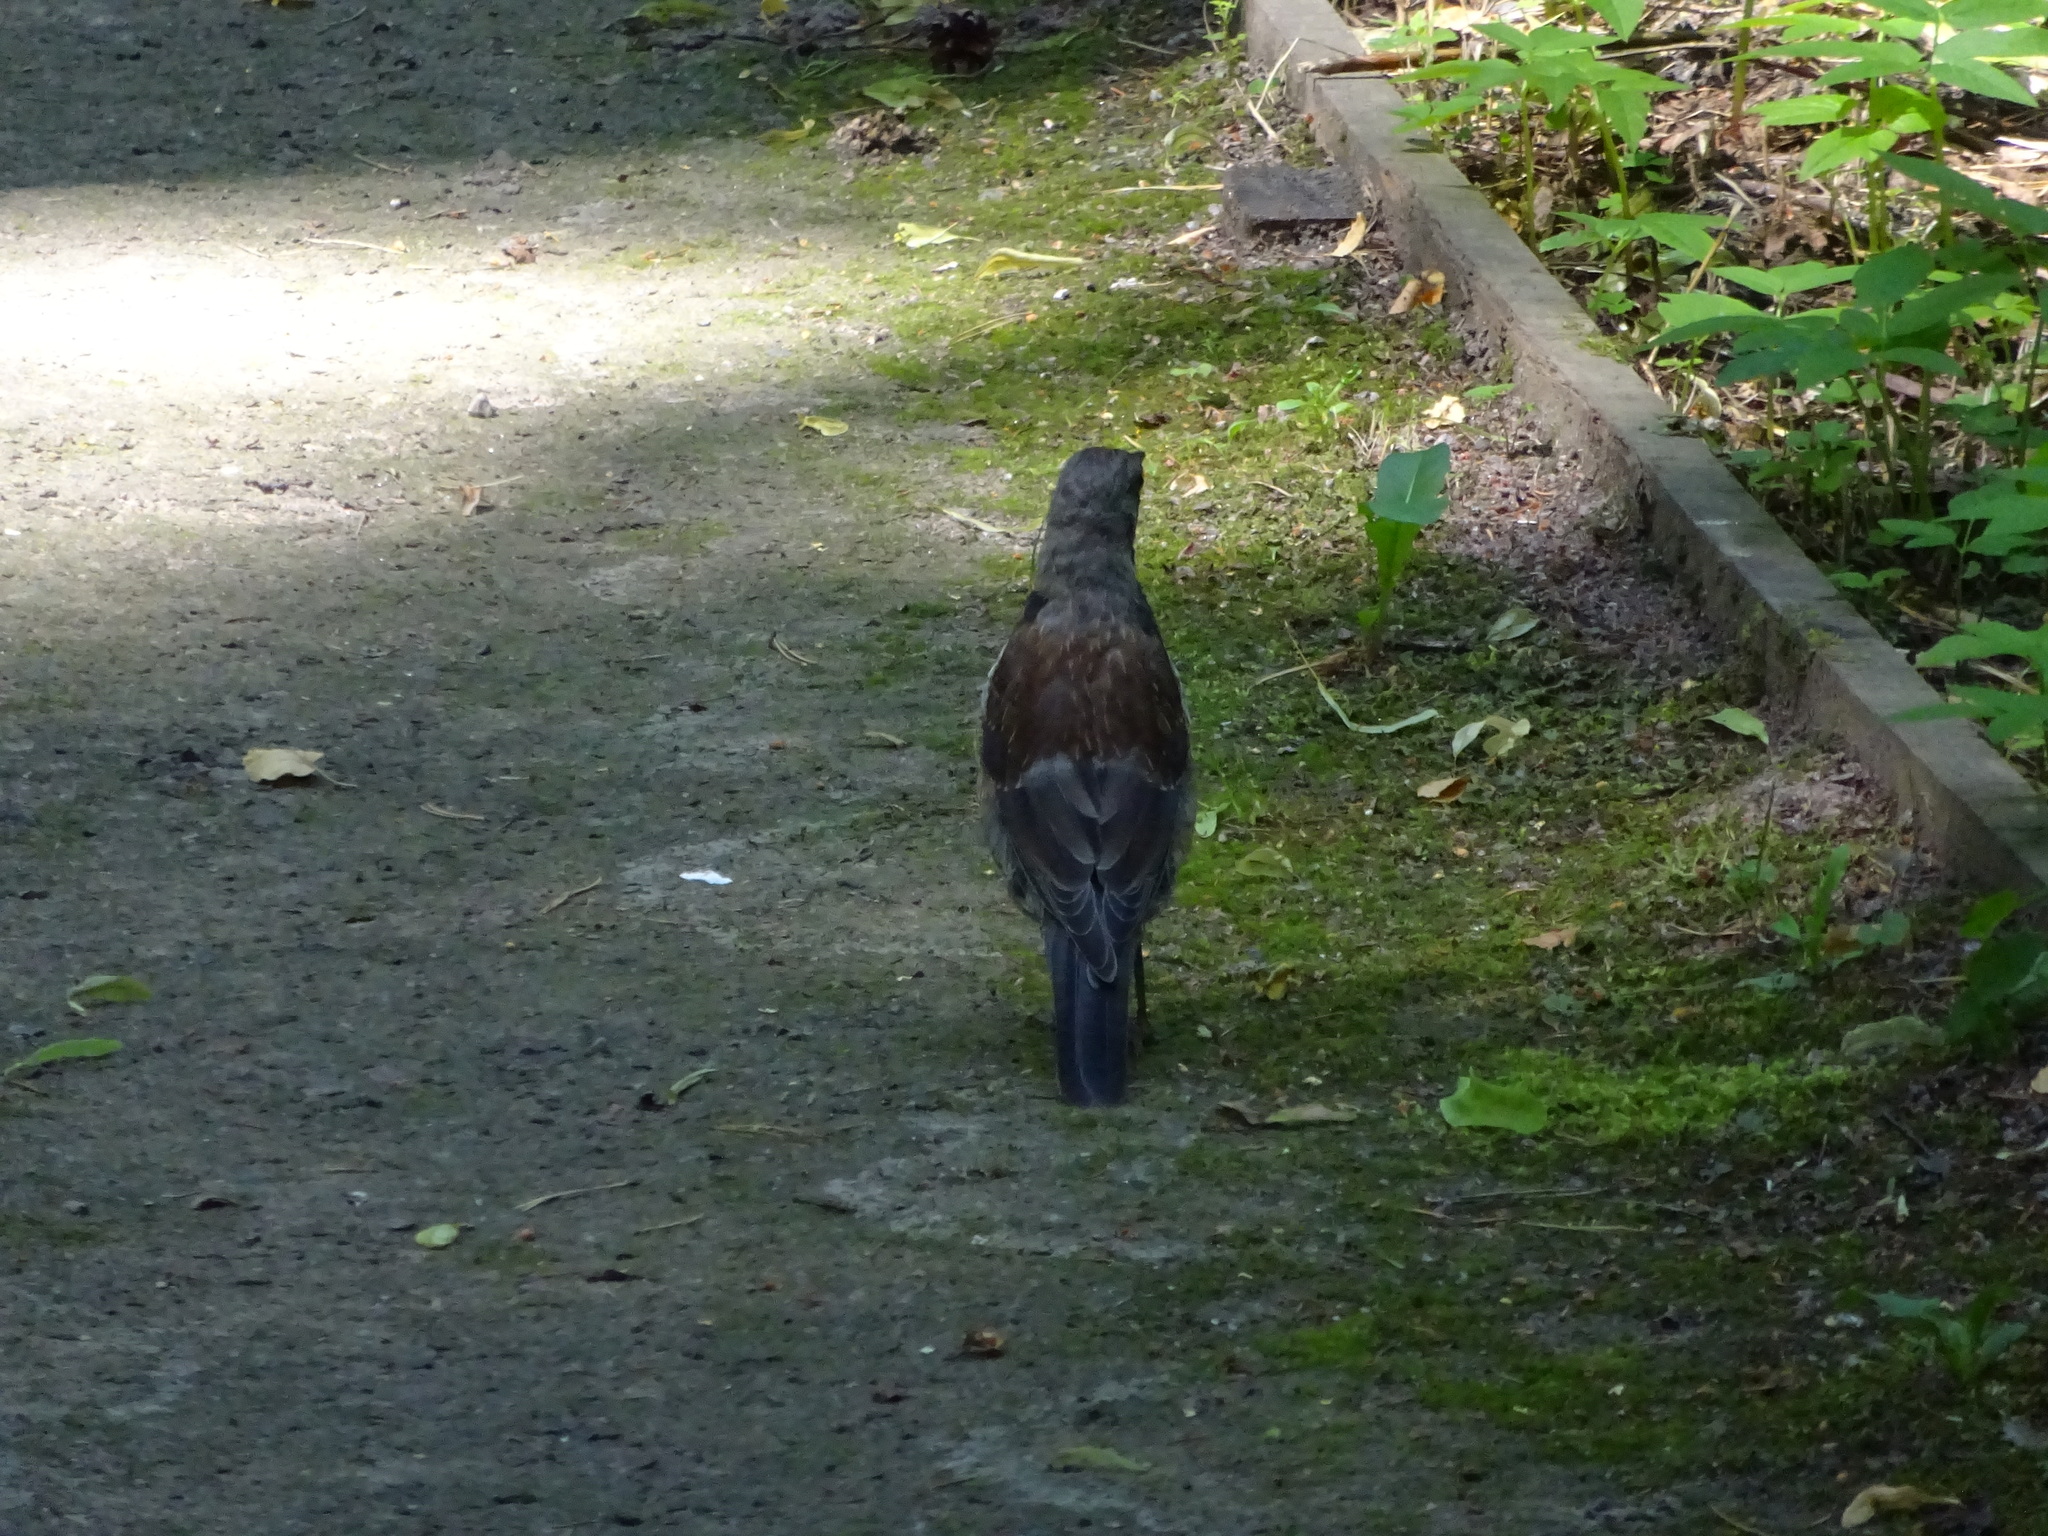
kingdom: Animalia
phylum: Chordata
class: Aves
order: Passeriformes
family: Turdidae
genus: Turdus
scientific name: Turdus pilaris
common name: Fieldfare
